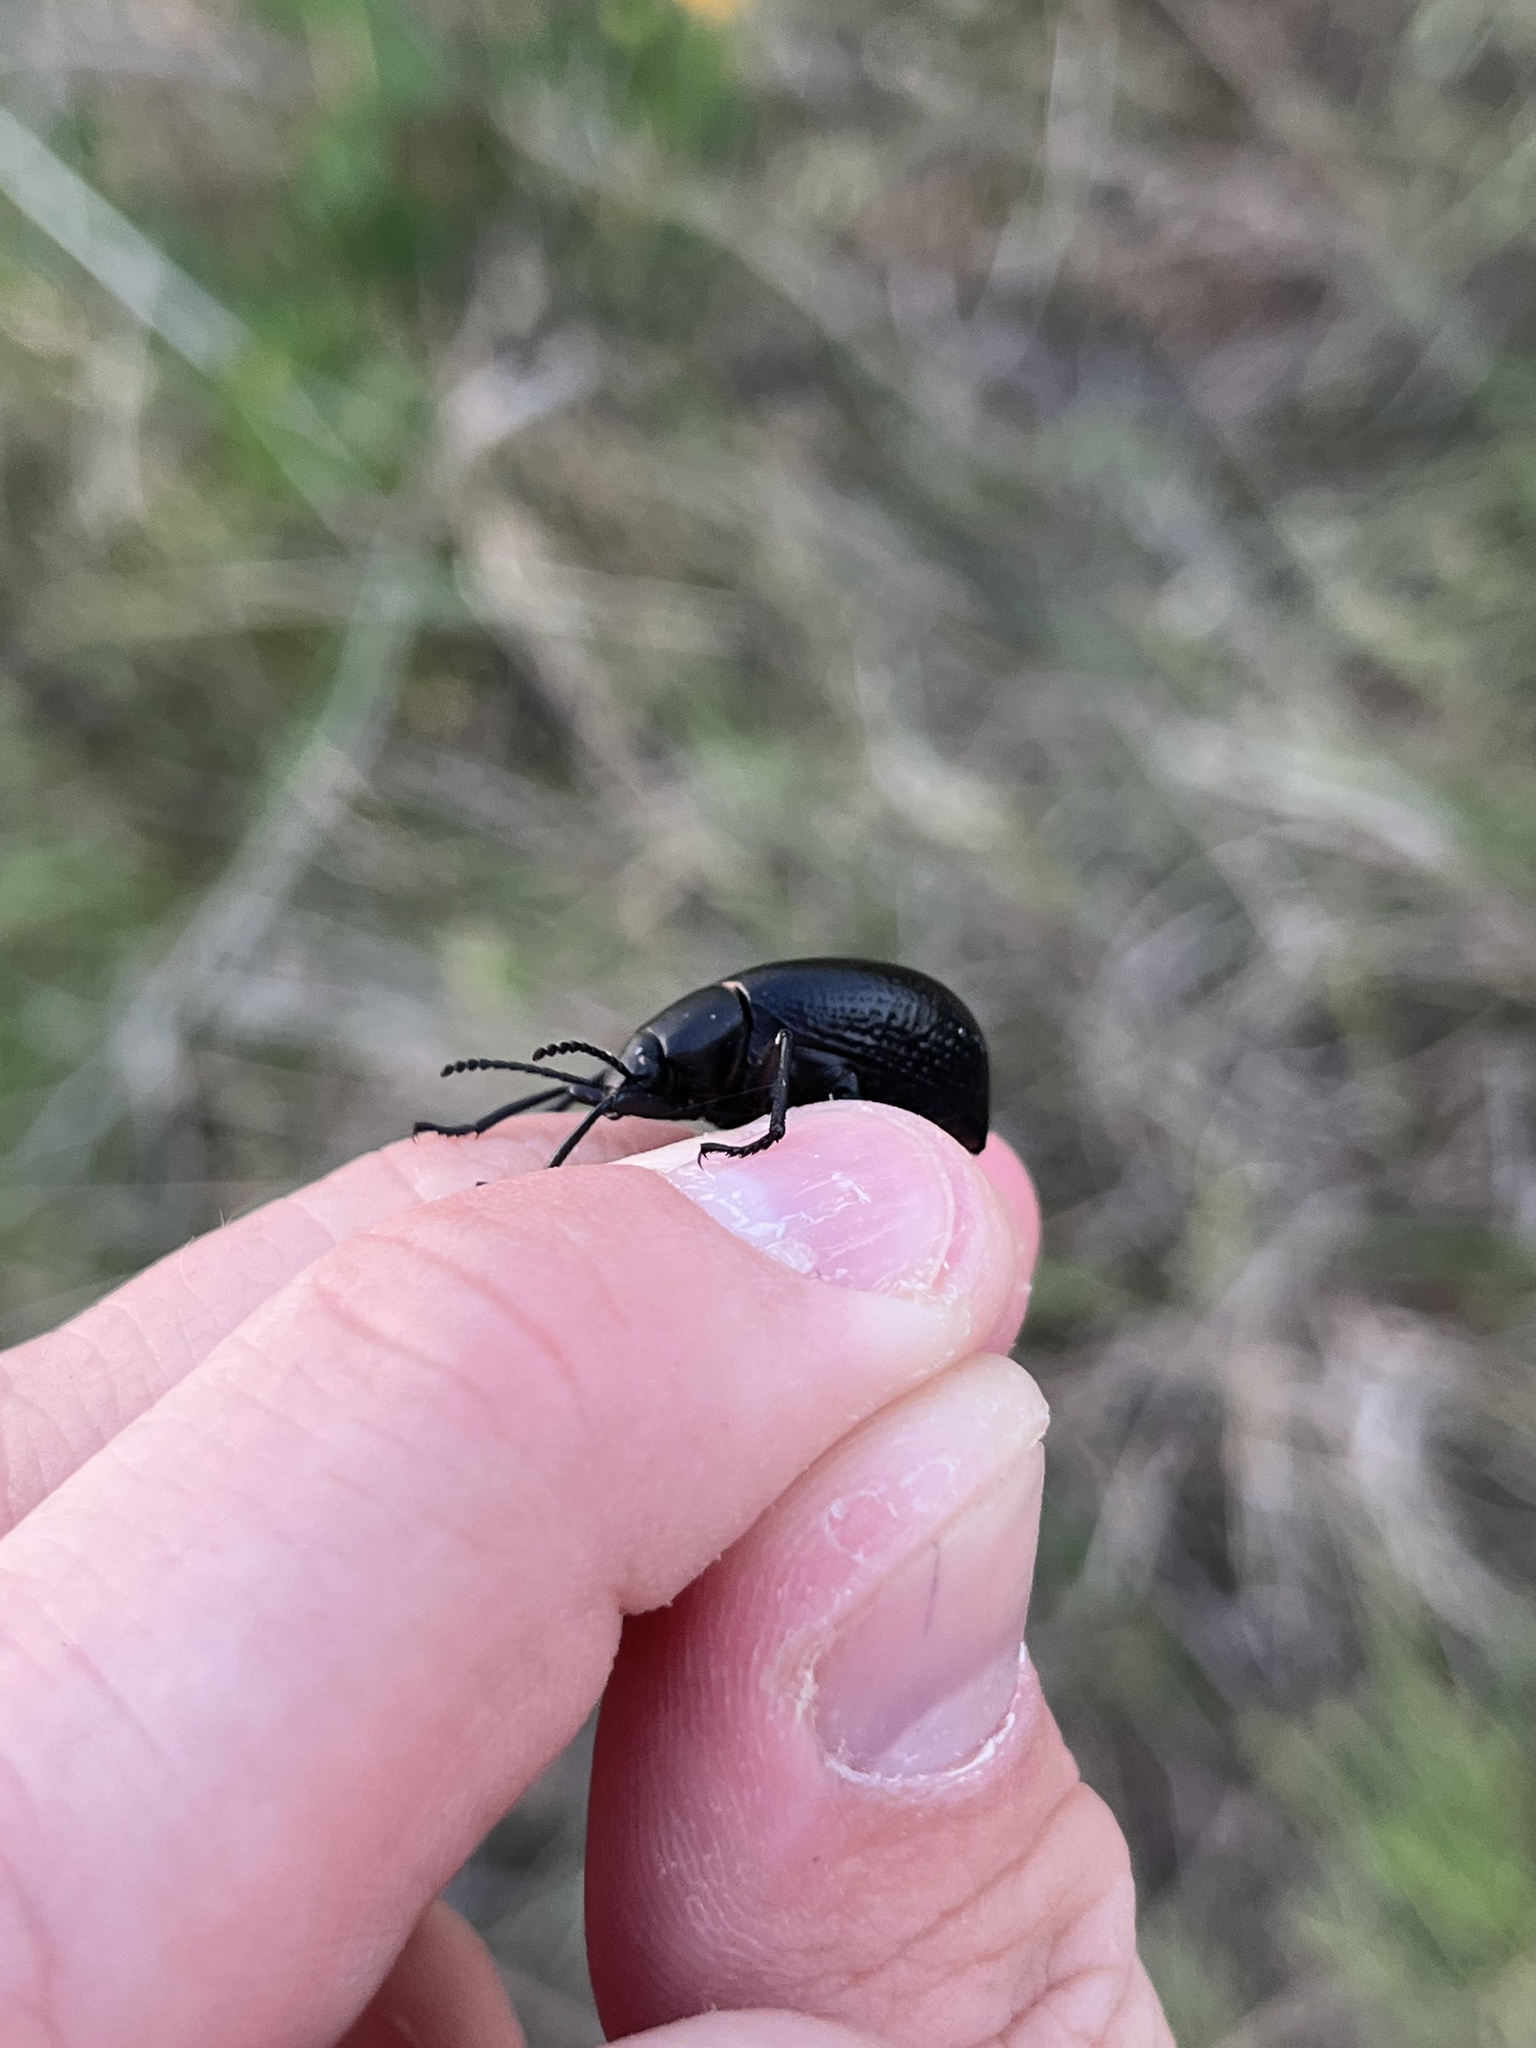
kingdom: Animalia
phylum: Arthropoda
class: Insecta
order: Coleoptera
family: Tenebrionidae
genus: Eleodes
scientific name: Eleodes goryi
